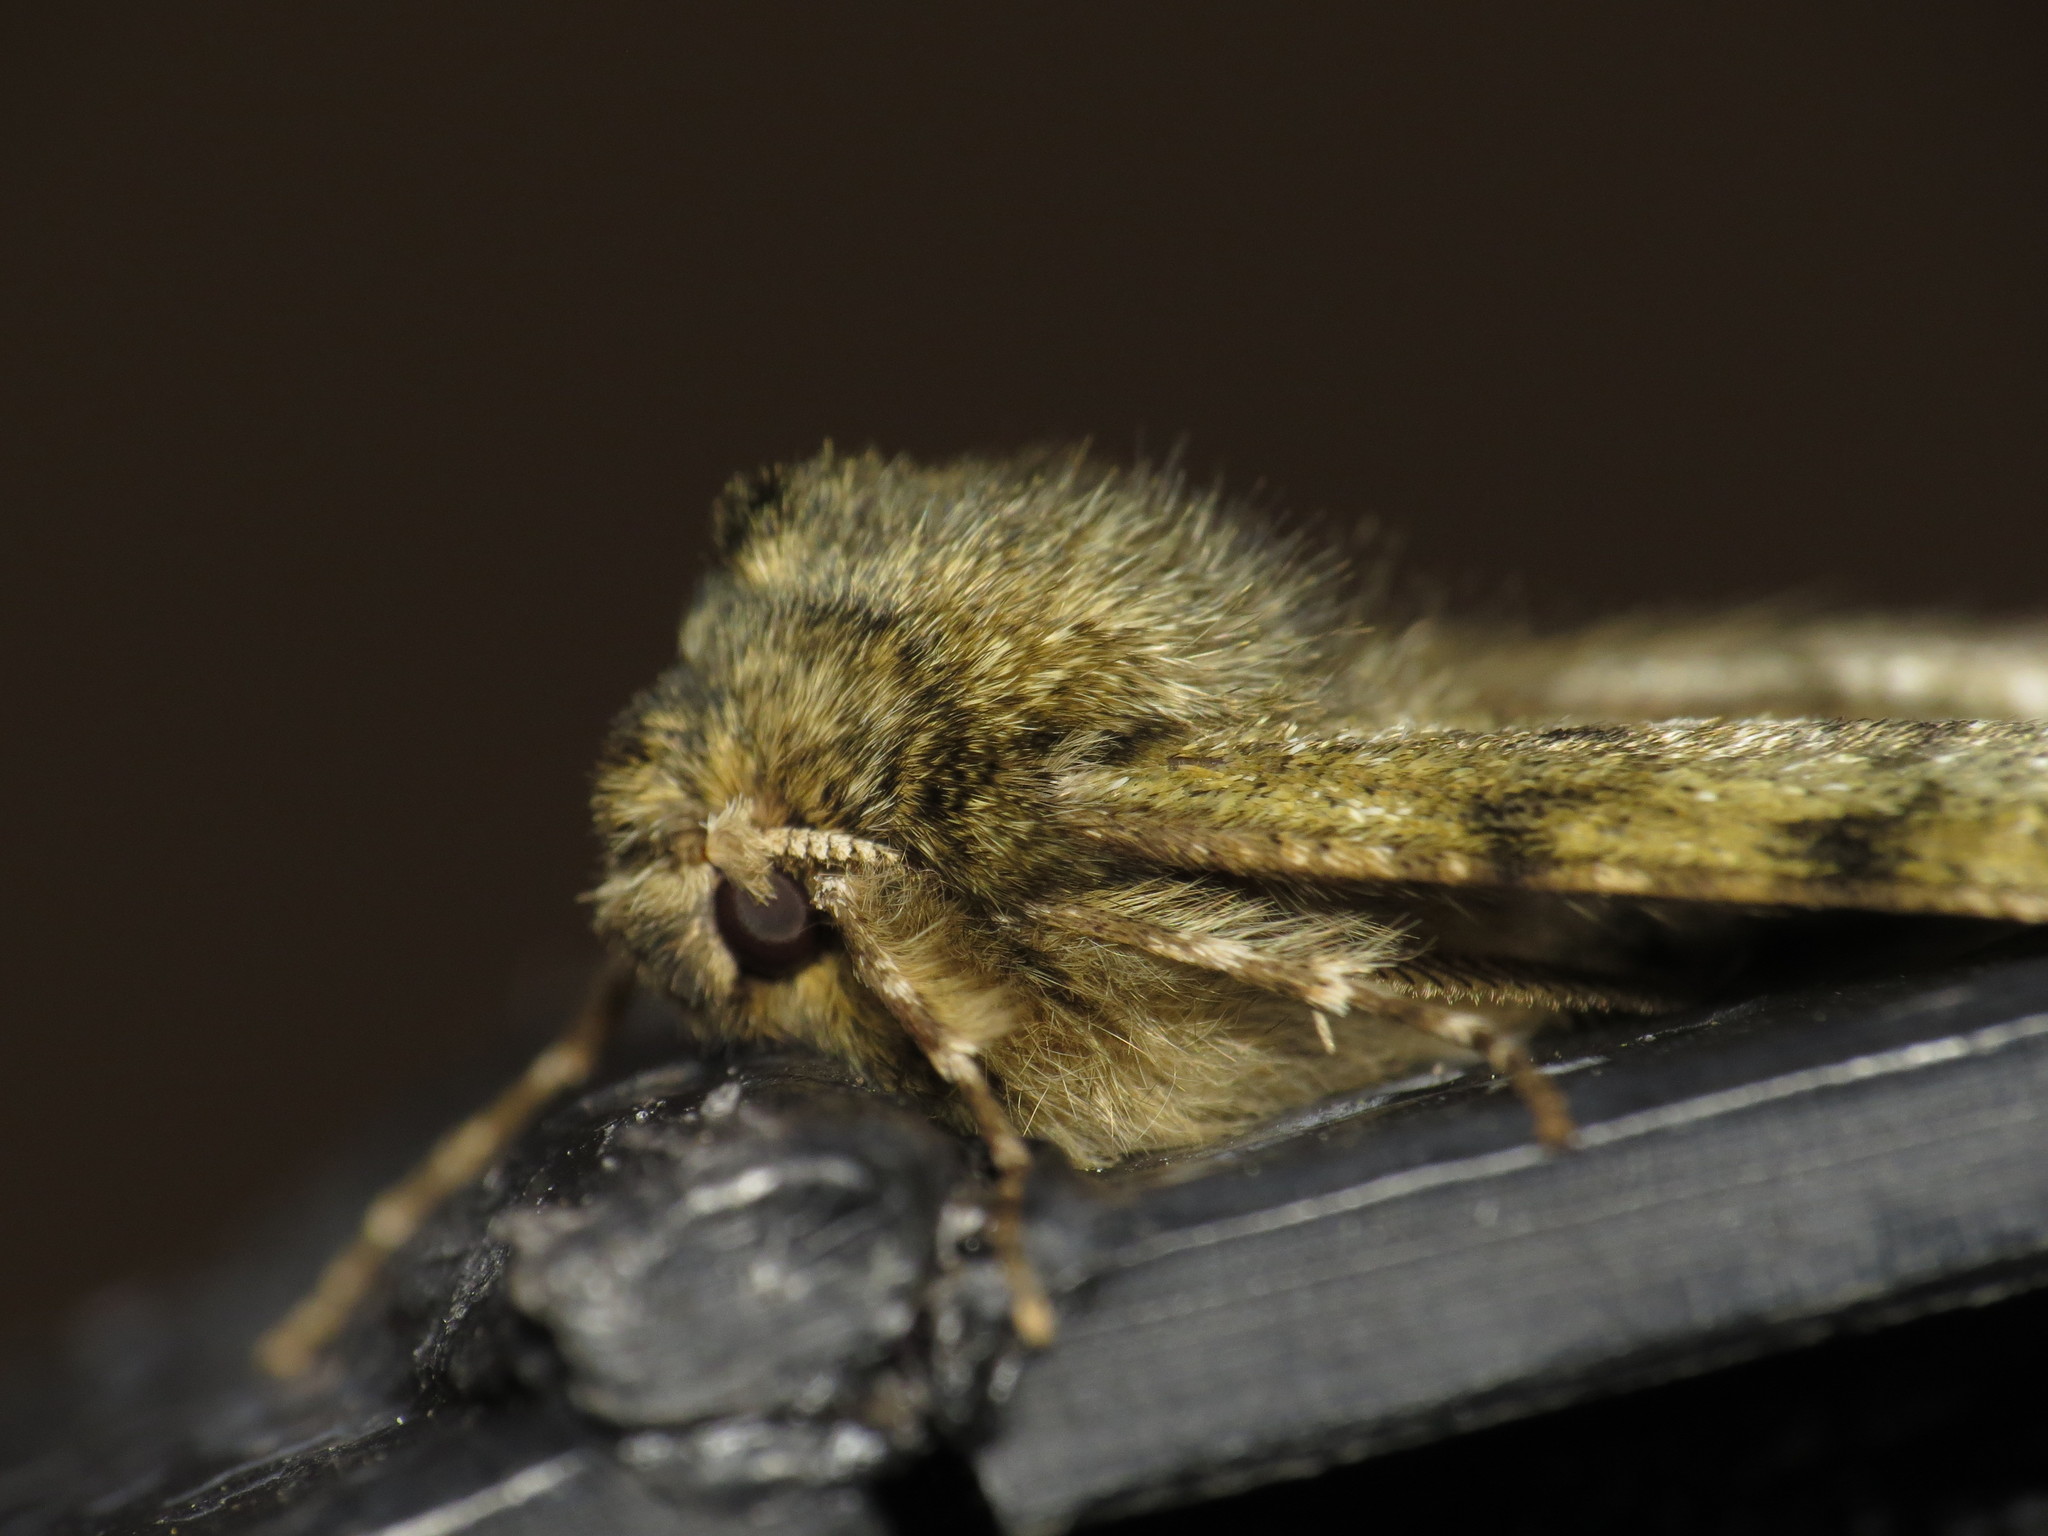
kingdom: Animalia
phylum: Arthropoda
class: Insecta
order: Lepidoptera
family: Geometridae
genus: Phigalia
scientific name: Phigalia pilosaria
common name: Pale brindled beauty
